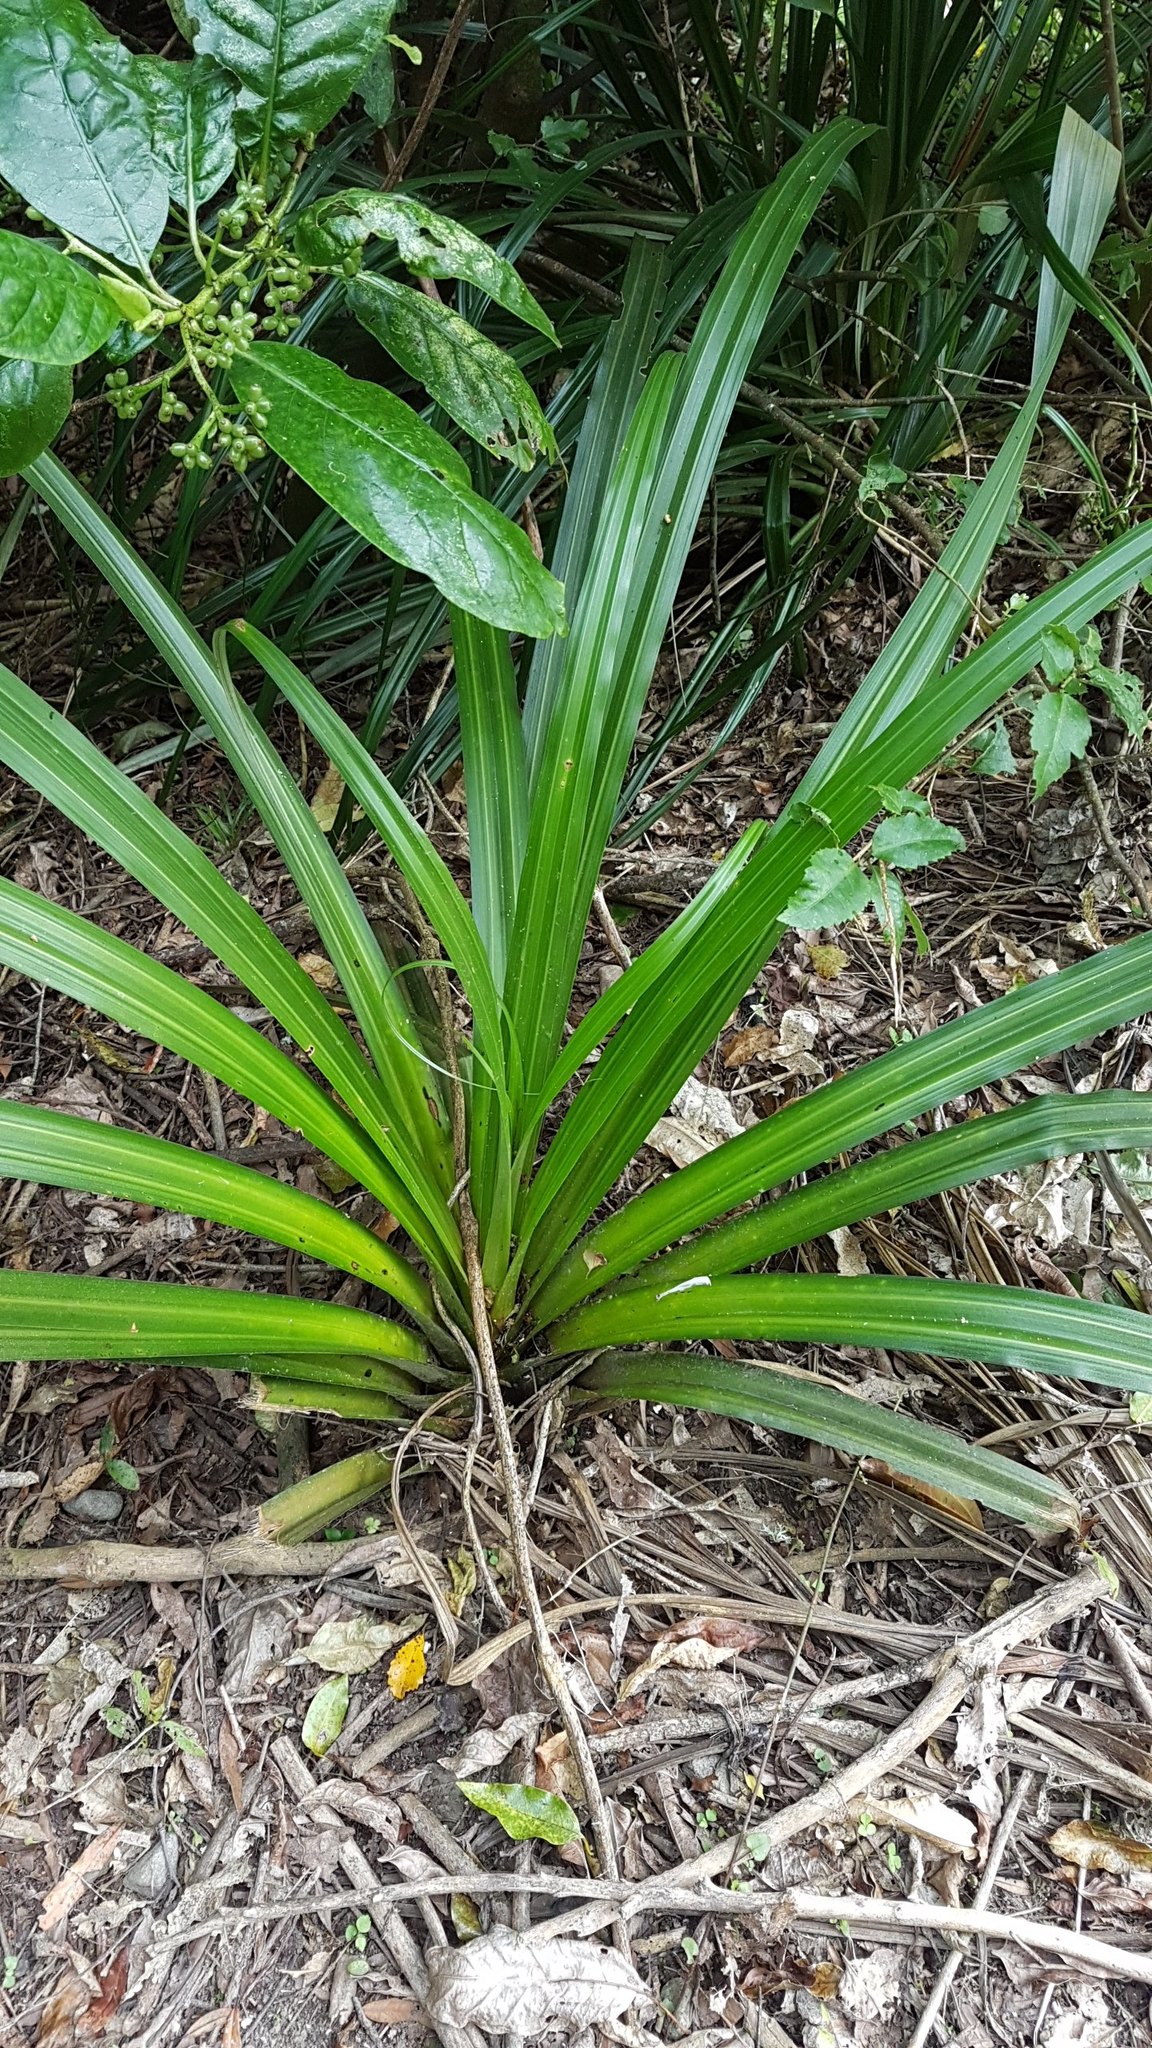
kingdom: Plantae
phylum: Tracheophyta
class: Liliopsida
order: Asparagales
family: Asteliaceae
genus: Astelia
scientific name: Astelia fragrans
